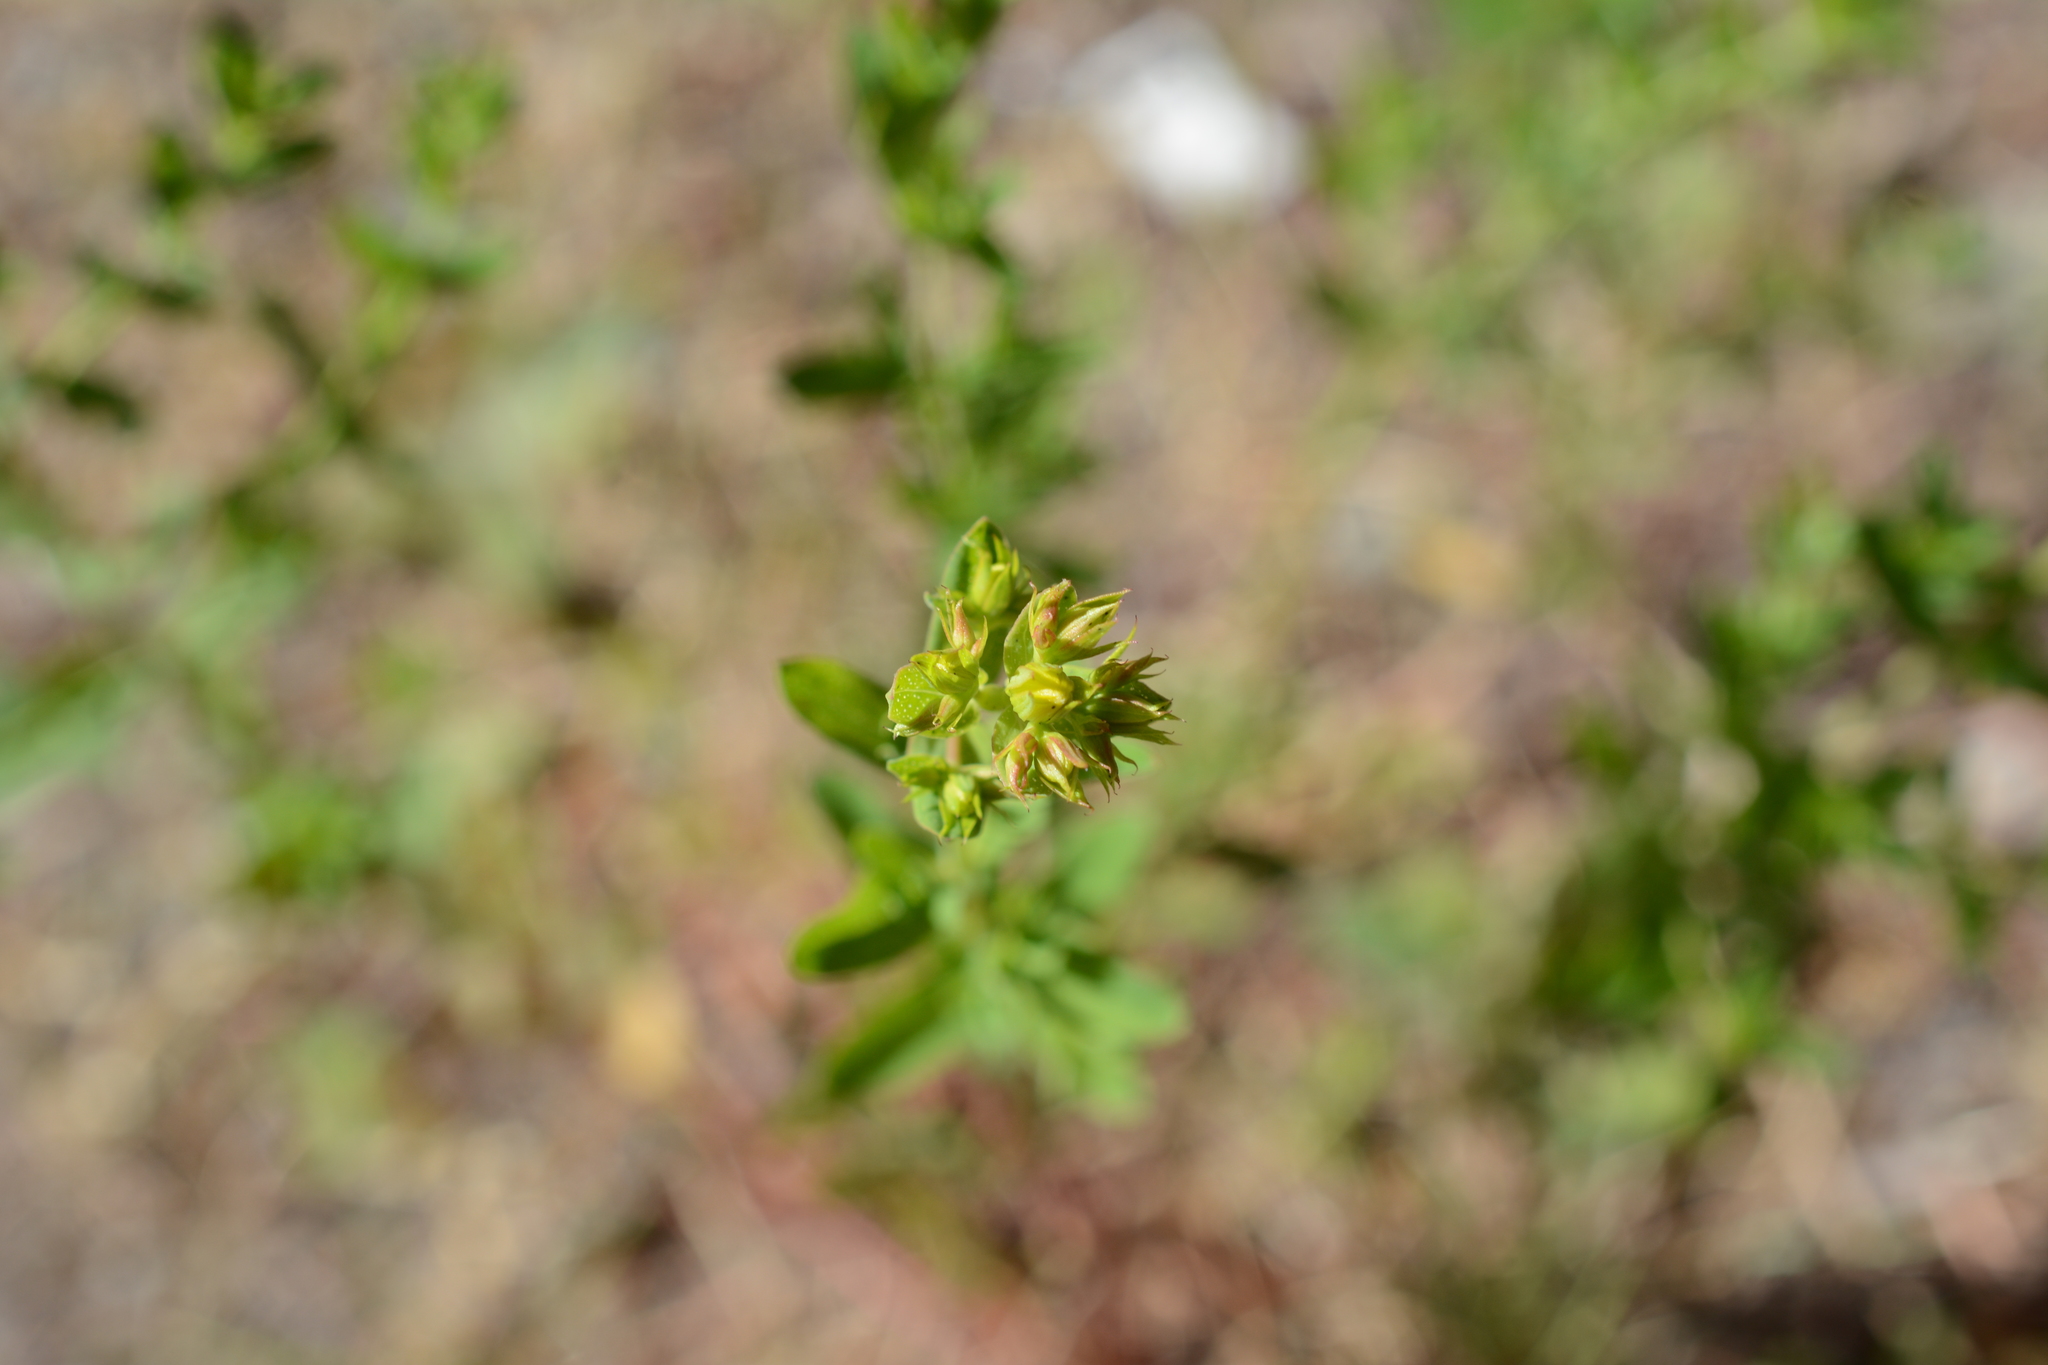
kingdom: Plantae
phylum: Tracheophyta
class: Magnoliopsida
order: Malpighiales
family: Hypericaceae
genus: Hypericum
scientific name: Hypericum perforatum
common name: Common st. johnswort
